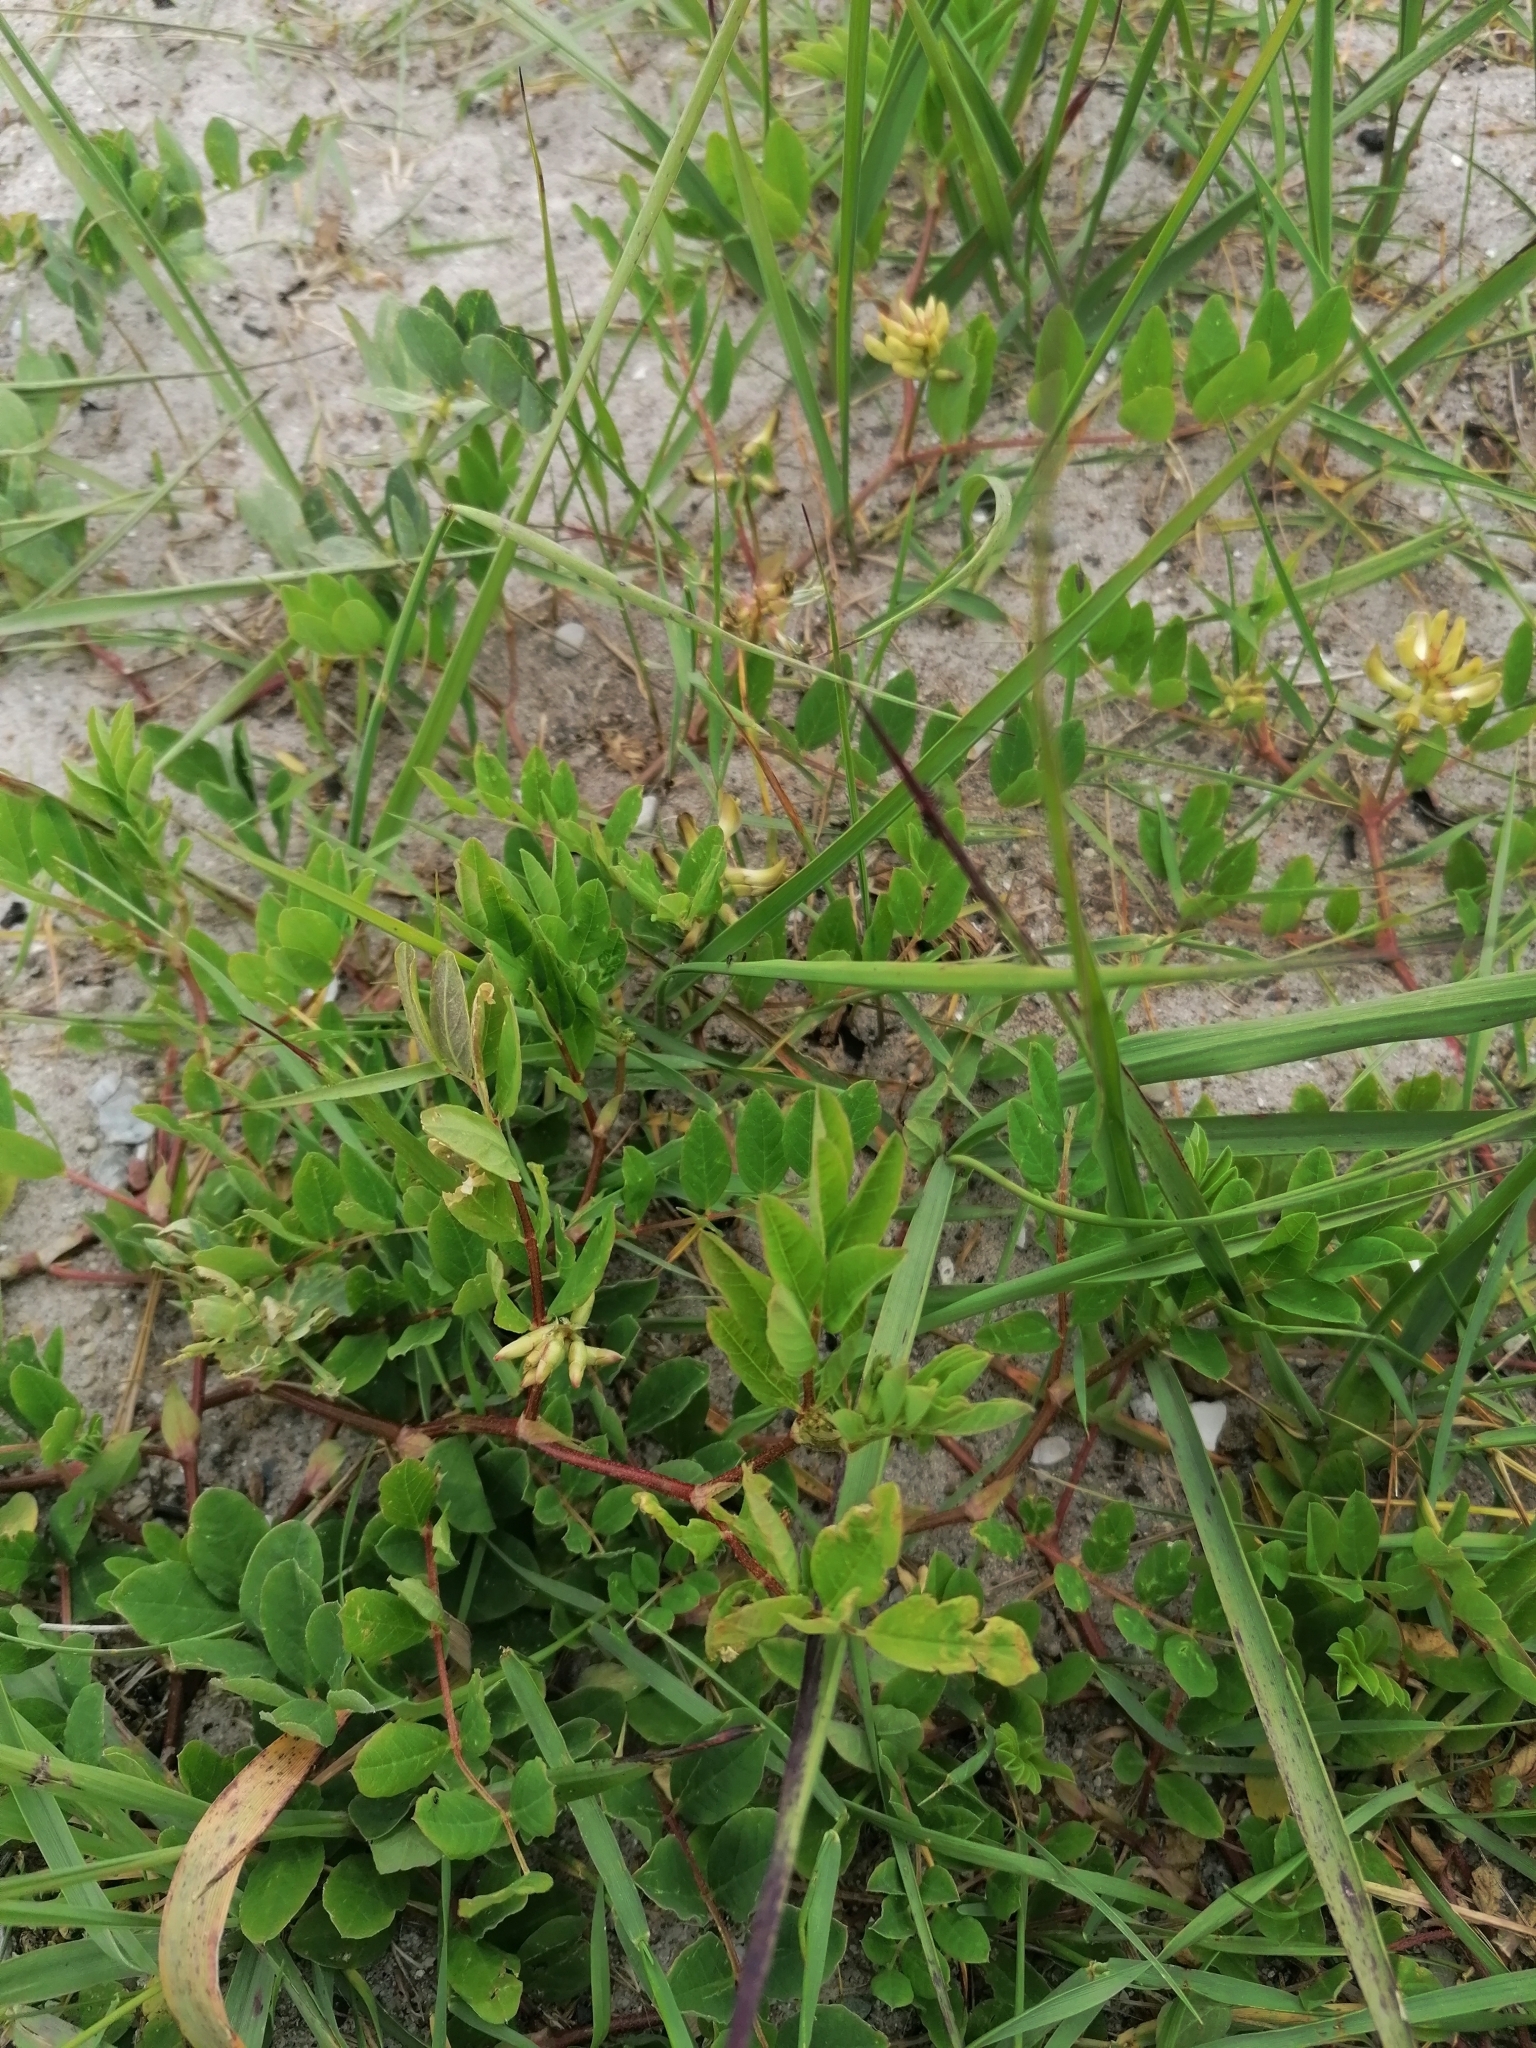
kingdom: Plantae
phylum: Tracheophyta
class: Magnoliopsida
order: Fabales
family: Fabaceae
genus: Astragalus
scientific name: Astragalus glycyphyllos
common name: Wild liquorice
